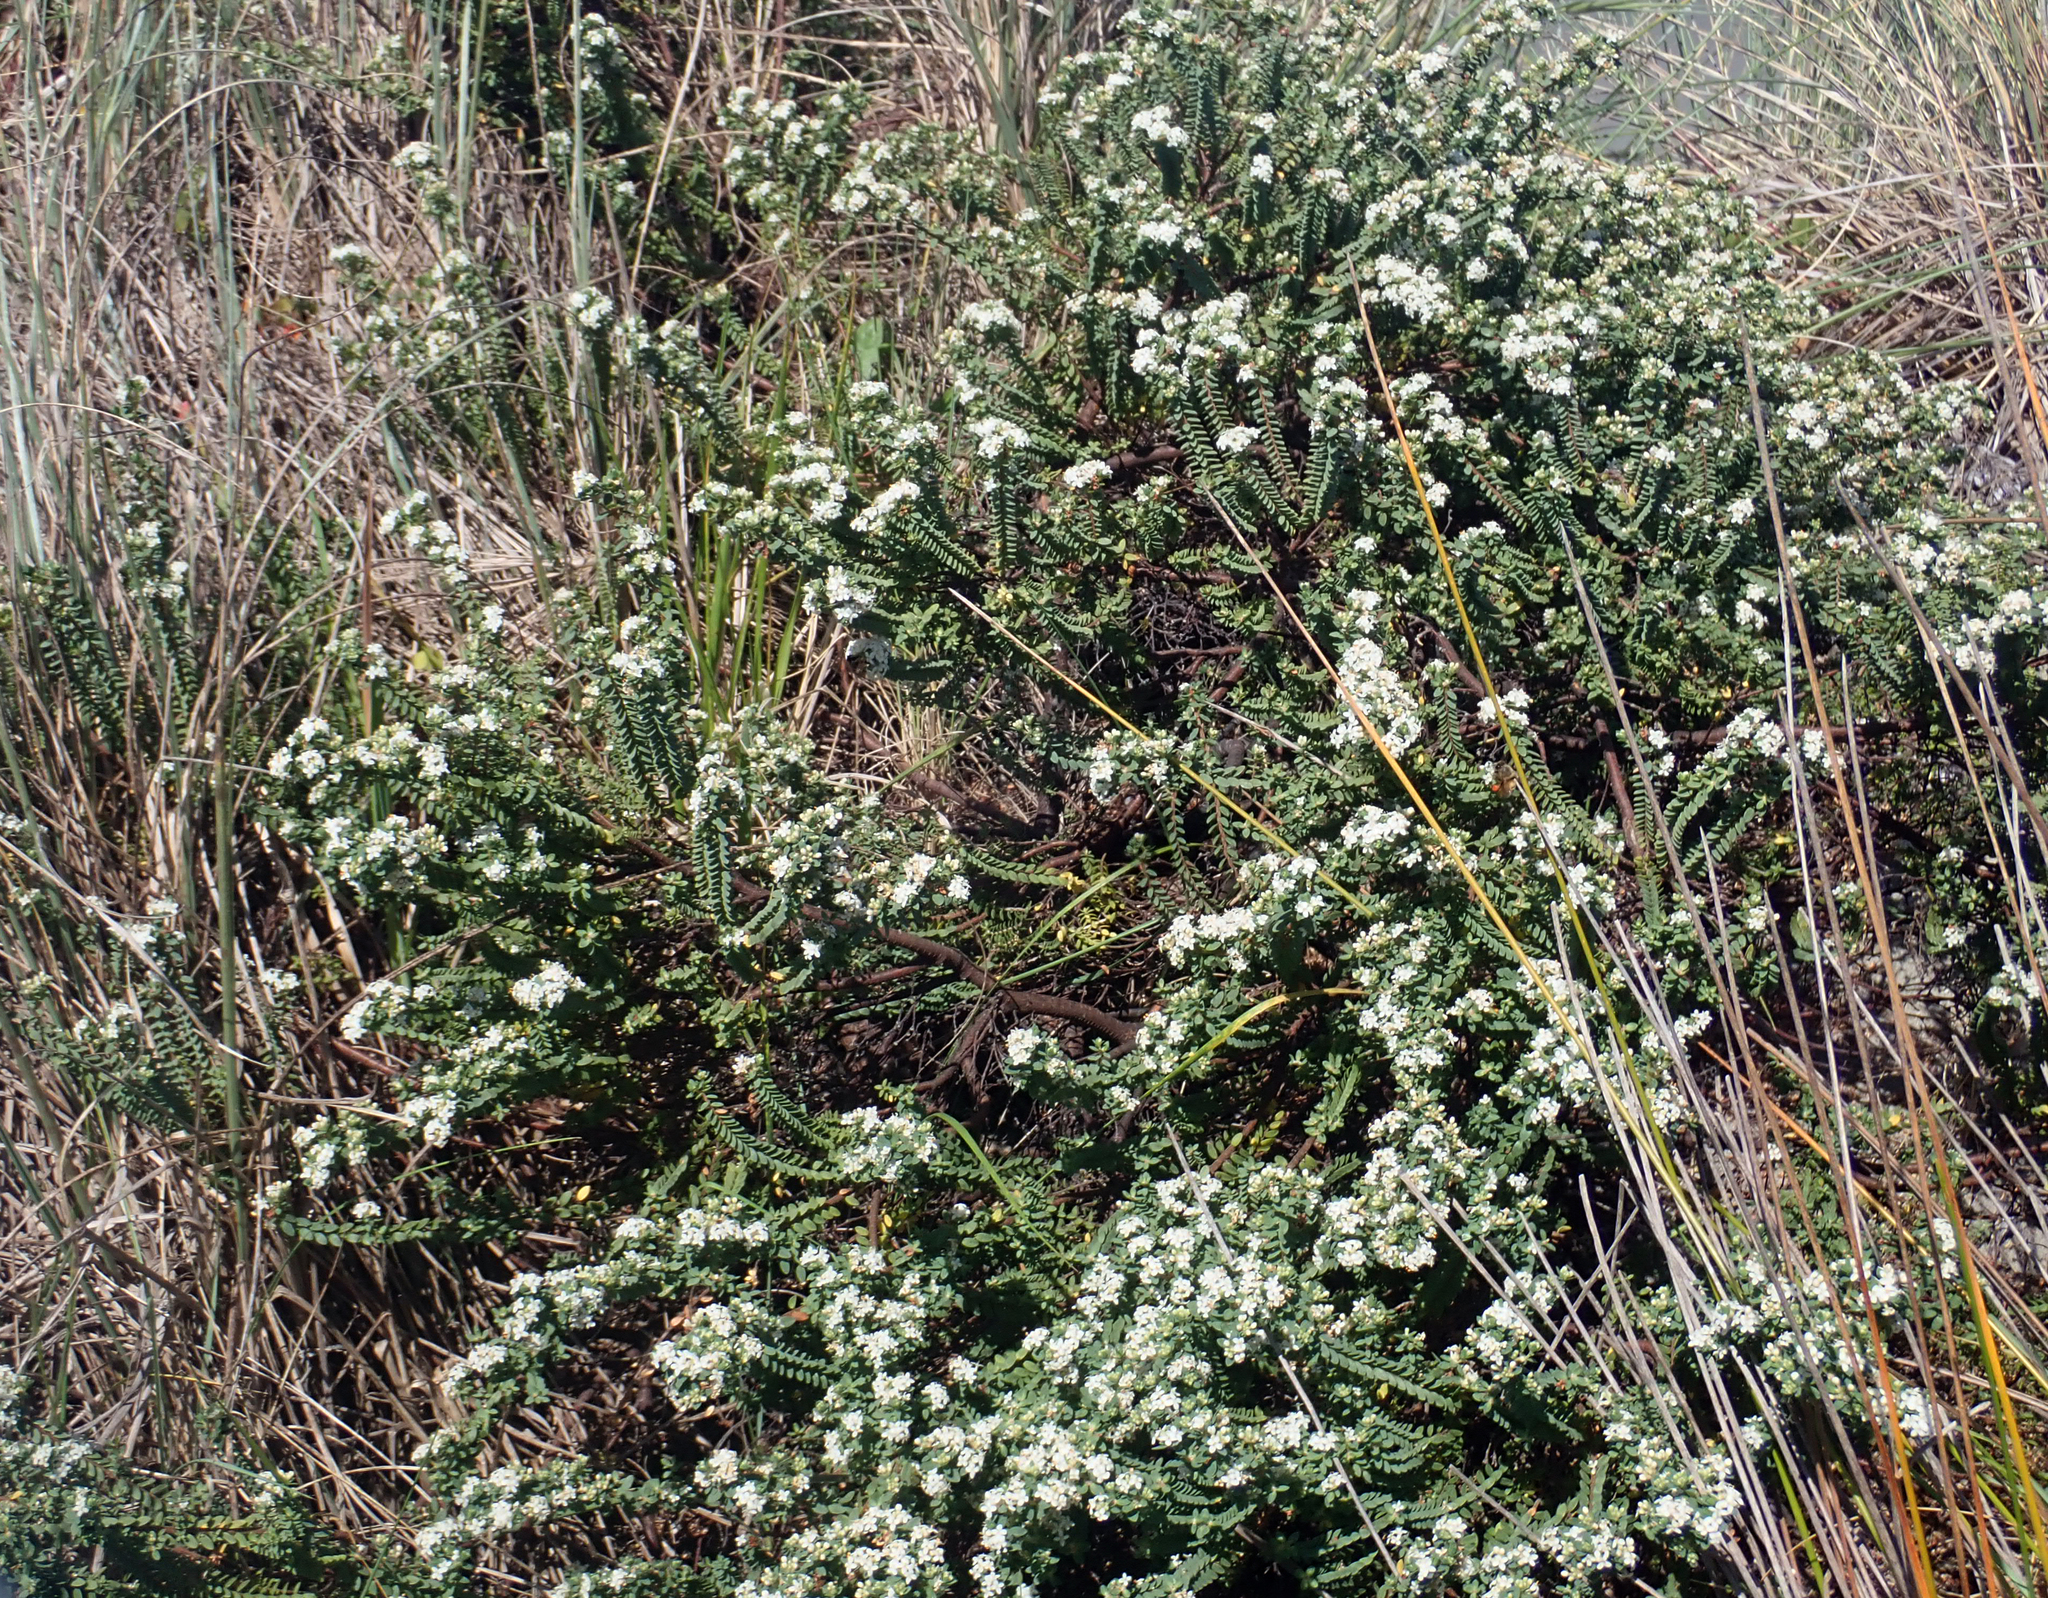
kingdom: Plantae
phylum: Tracheophyta
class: Magnoliopsida
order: Malvales
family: Thymelaeaceae
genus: Pimelea
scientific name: Pimelea orthia
